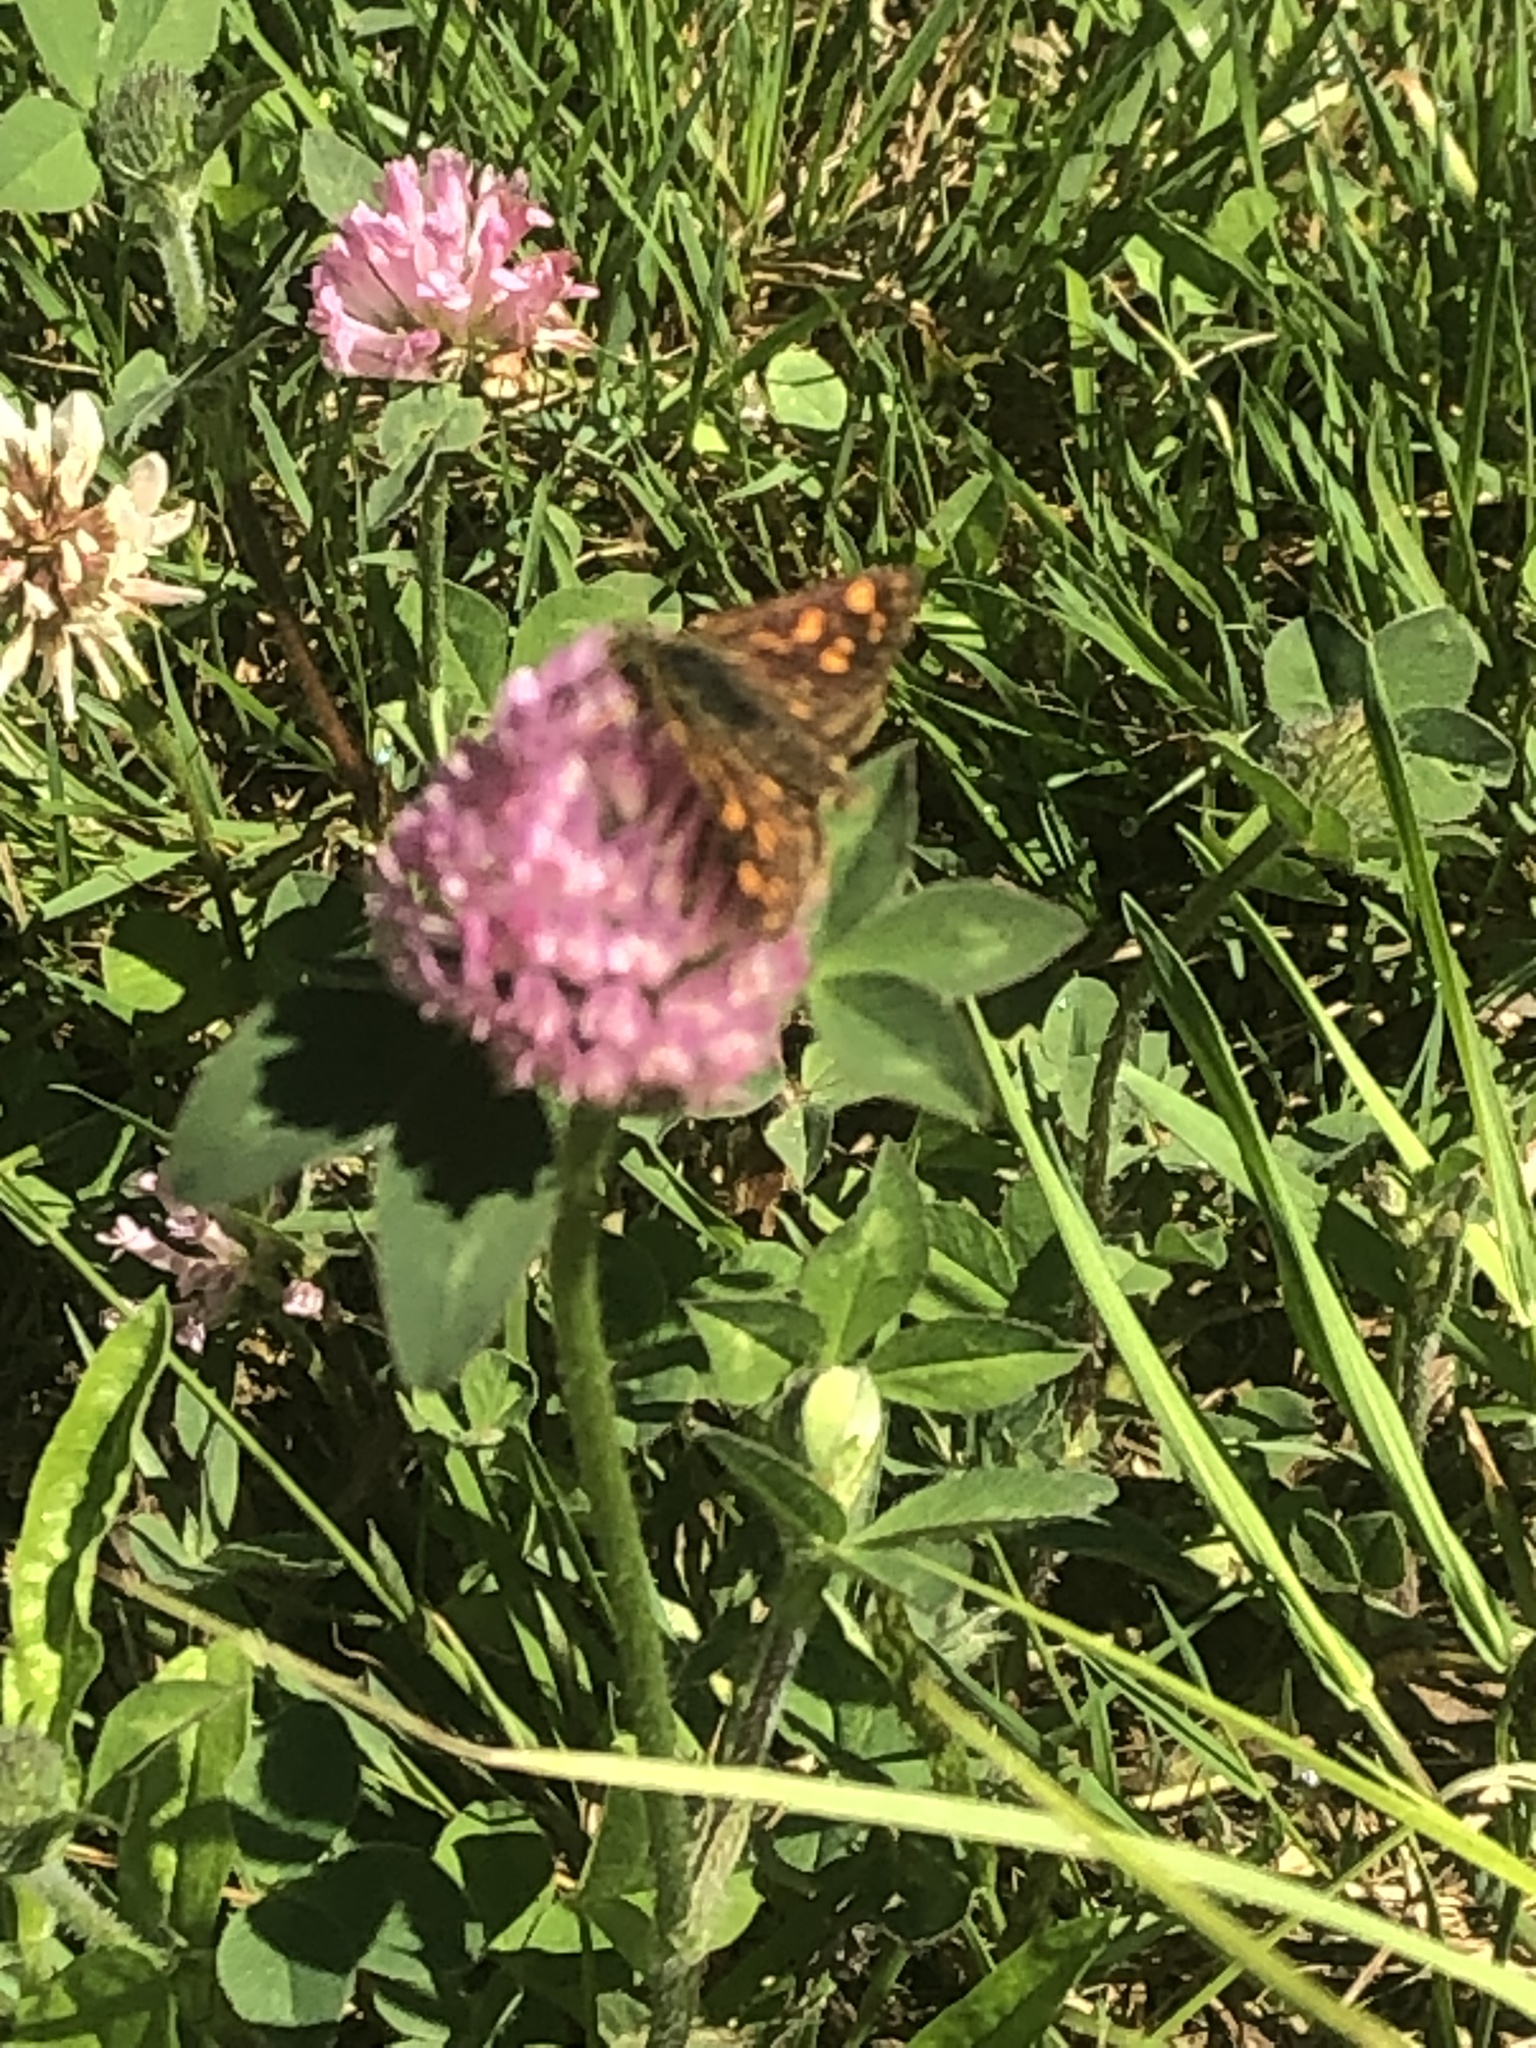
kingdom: Animalia
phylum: Arthropoda
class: Insecta
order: Lepidoptera
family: Hesperiidae
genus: Carterocephalus
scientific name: Carterocephalus mandan
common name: Arctic skipperling
